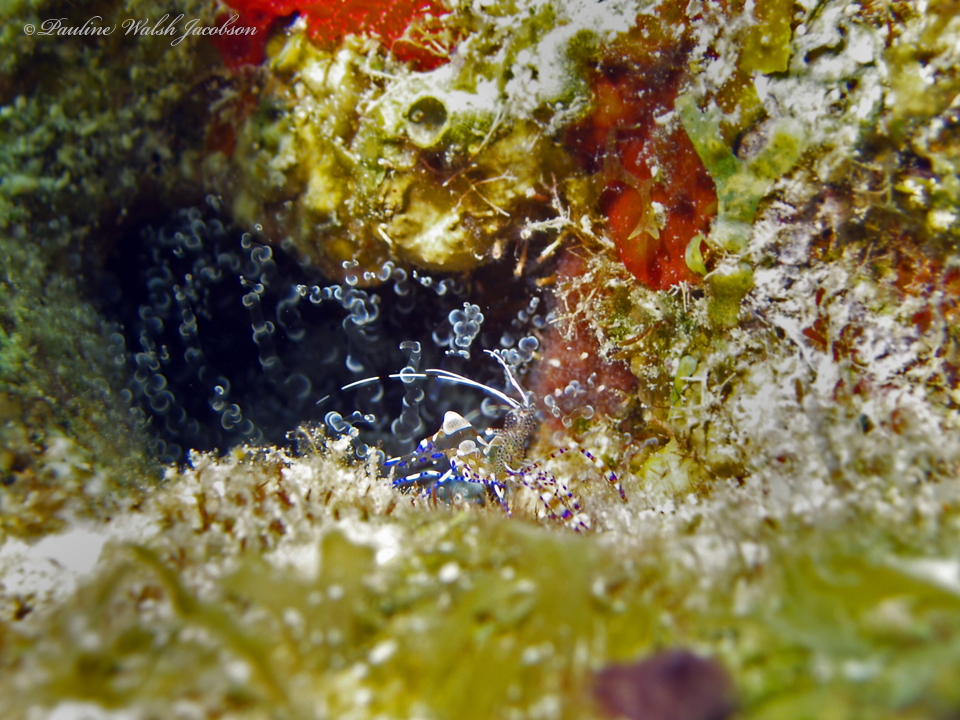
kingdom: Animalia
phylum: Arthropoda
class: Malacostraca
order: Decapoda
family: Palaemonidae
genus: Periclimenes
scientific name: Periclimenes yucatanicus
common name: Spotted cleaning shrimp
